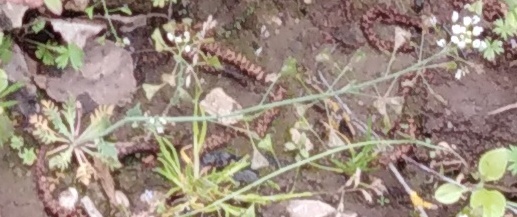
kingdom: Plantae
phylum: Tracheophyta
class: Magnoliopsida
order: Brassicales
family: Brassicaceae
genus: Capsella
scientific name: Capsella bursa-pastoris
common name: Shepherd's purse
